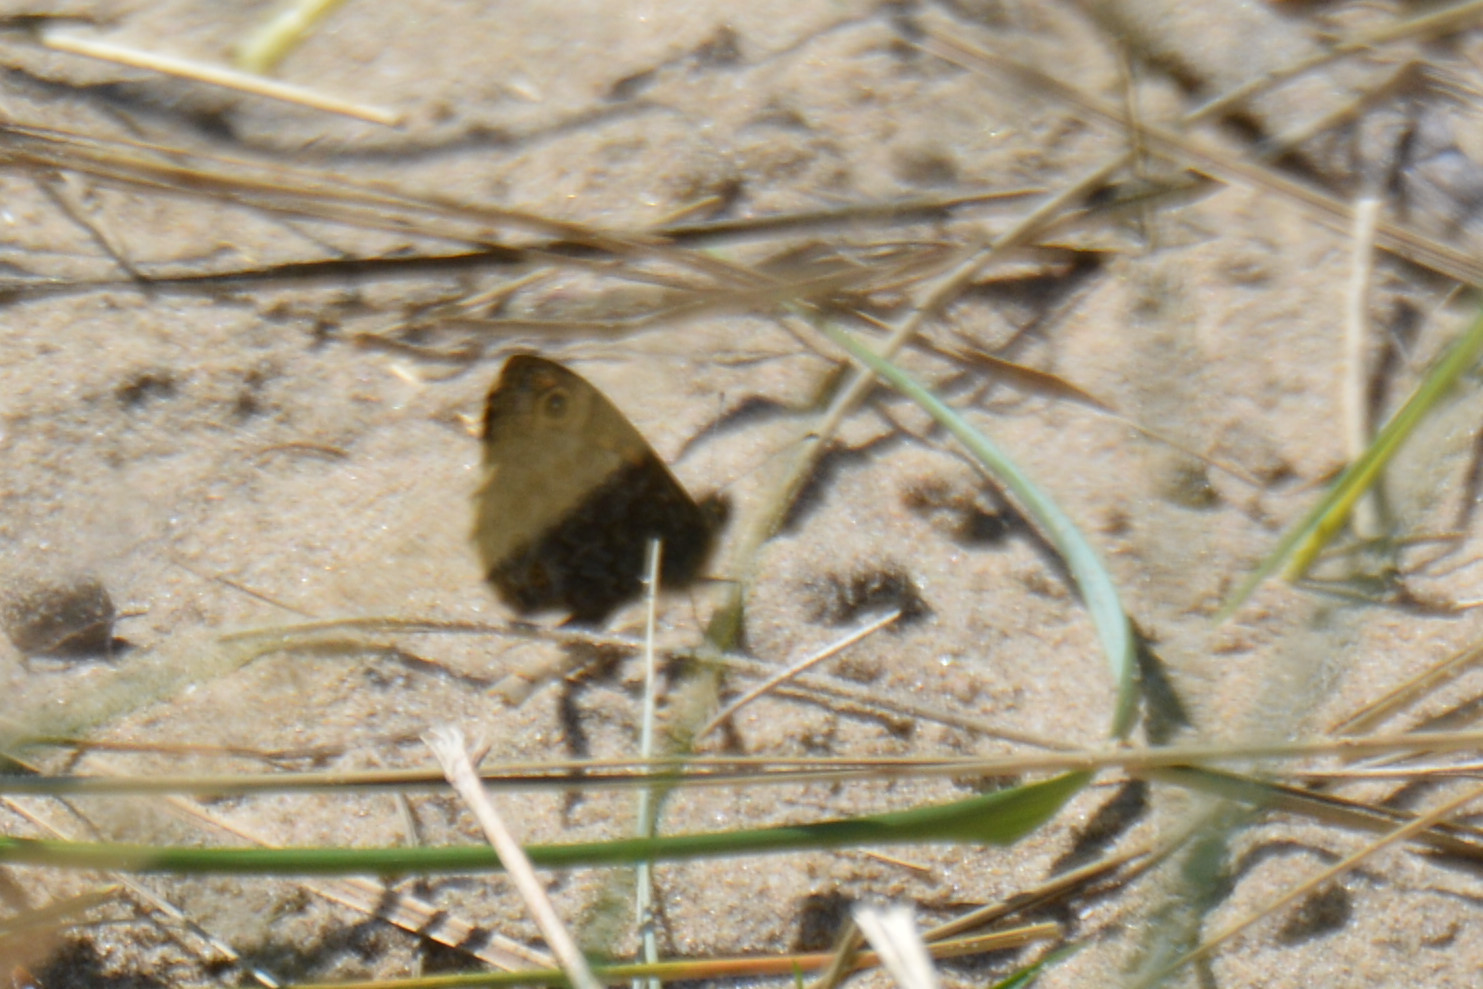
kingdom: Animalia
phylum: Arthropoda
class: Insecta
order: Lepidoptera
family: Nymphalidae
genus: Pararge
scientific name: Pararge Lasiommata megera
